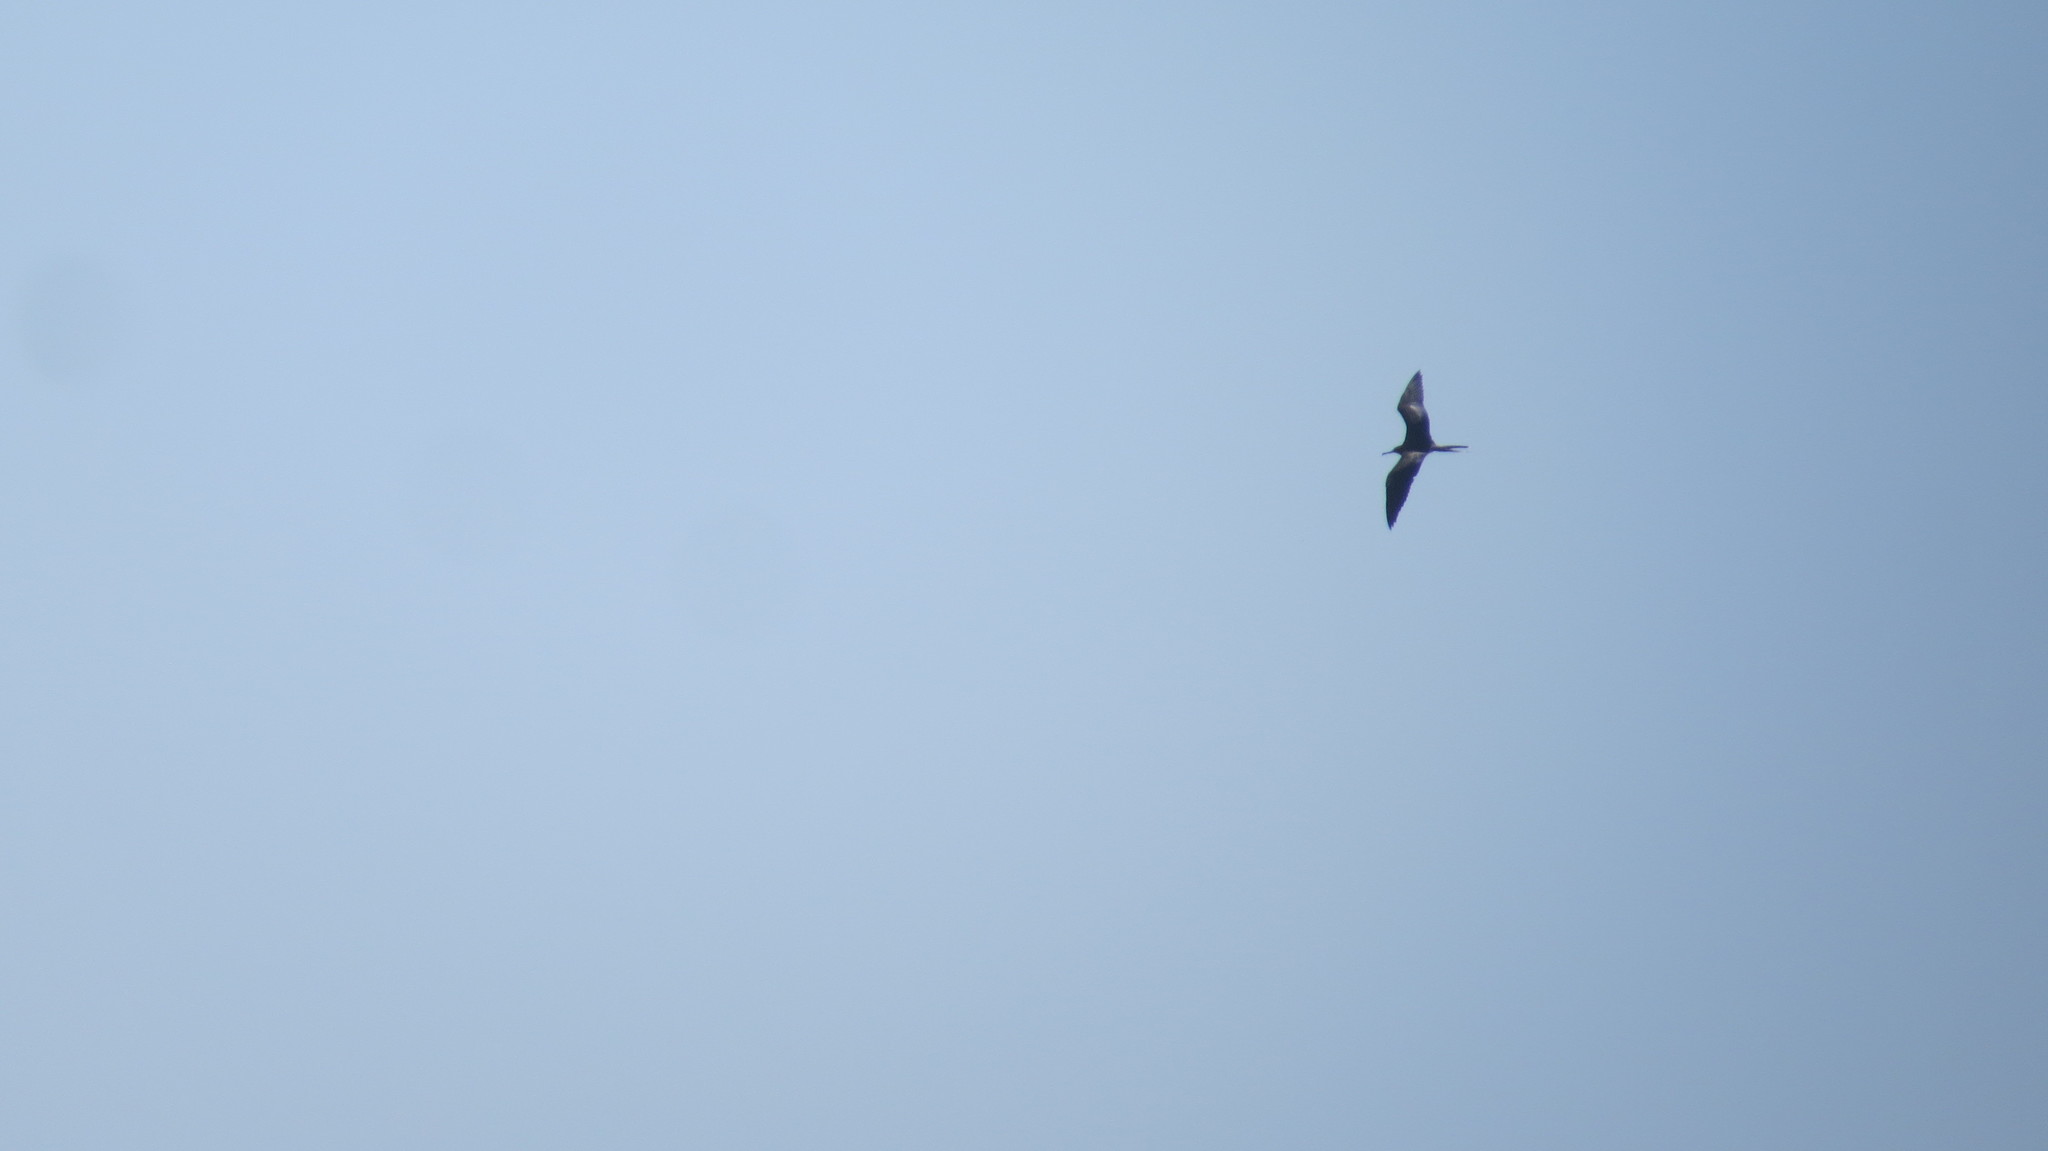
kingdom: Animalia
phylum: Chordata
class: Aves
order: Suliformes
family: Fregatidae
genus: Fregata
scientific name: Fregata magnificens
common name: Magnificent frigatebird
